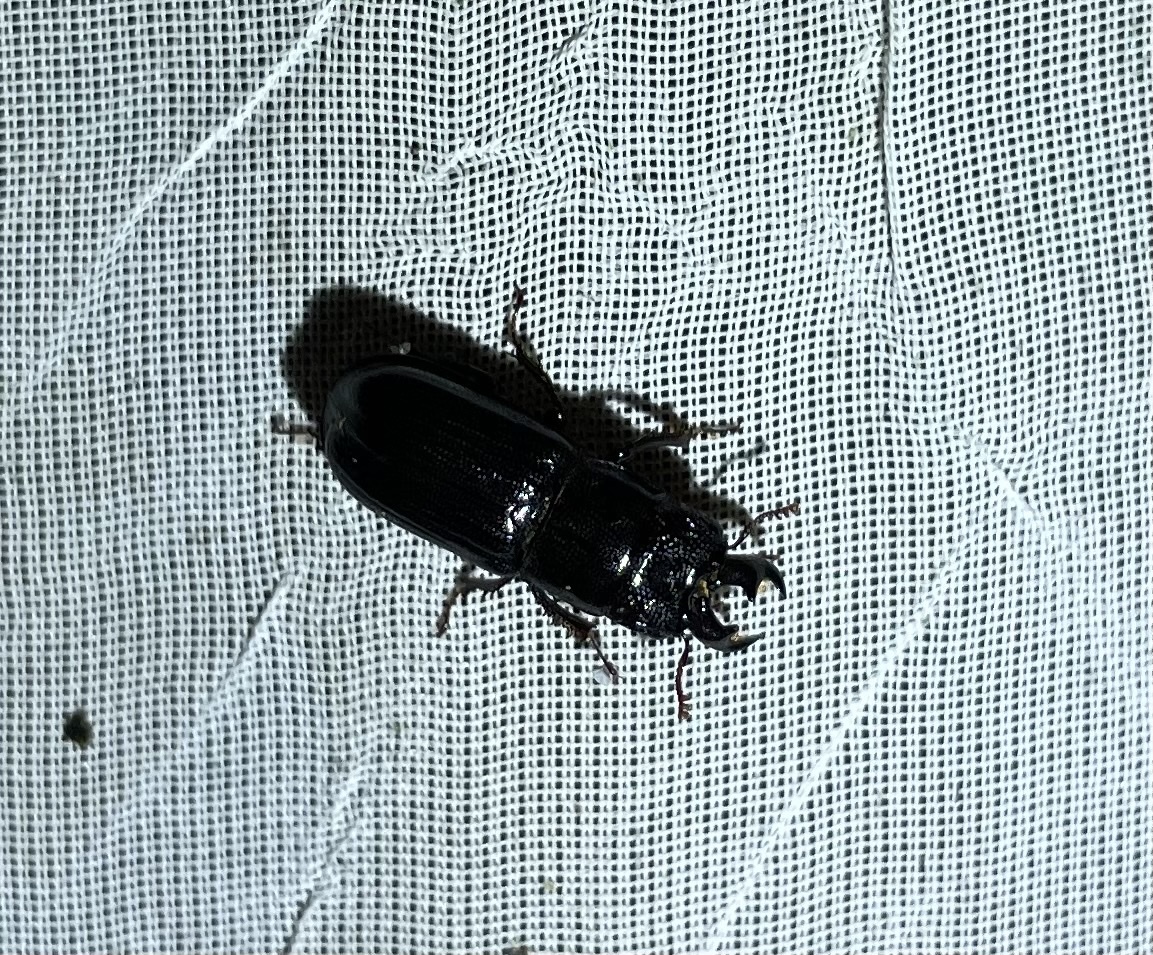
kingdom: Animalia
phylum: Arthropoda
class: Insecta
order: Coleoptera
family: Lucanidae
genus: Ceruchus
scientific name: Ceruchus piceus
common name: Red-rot decay stag beetle
